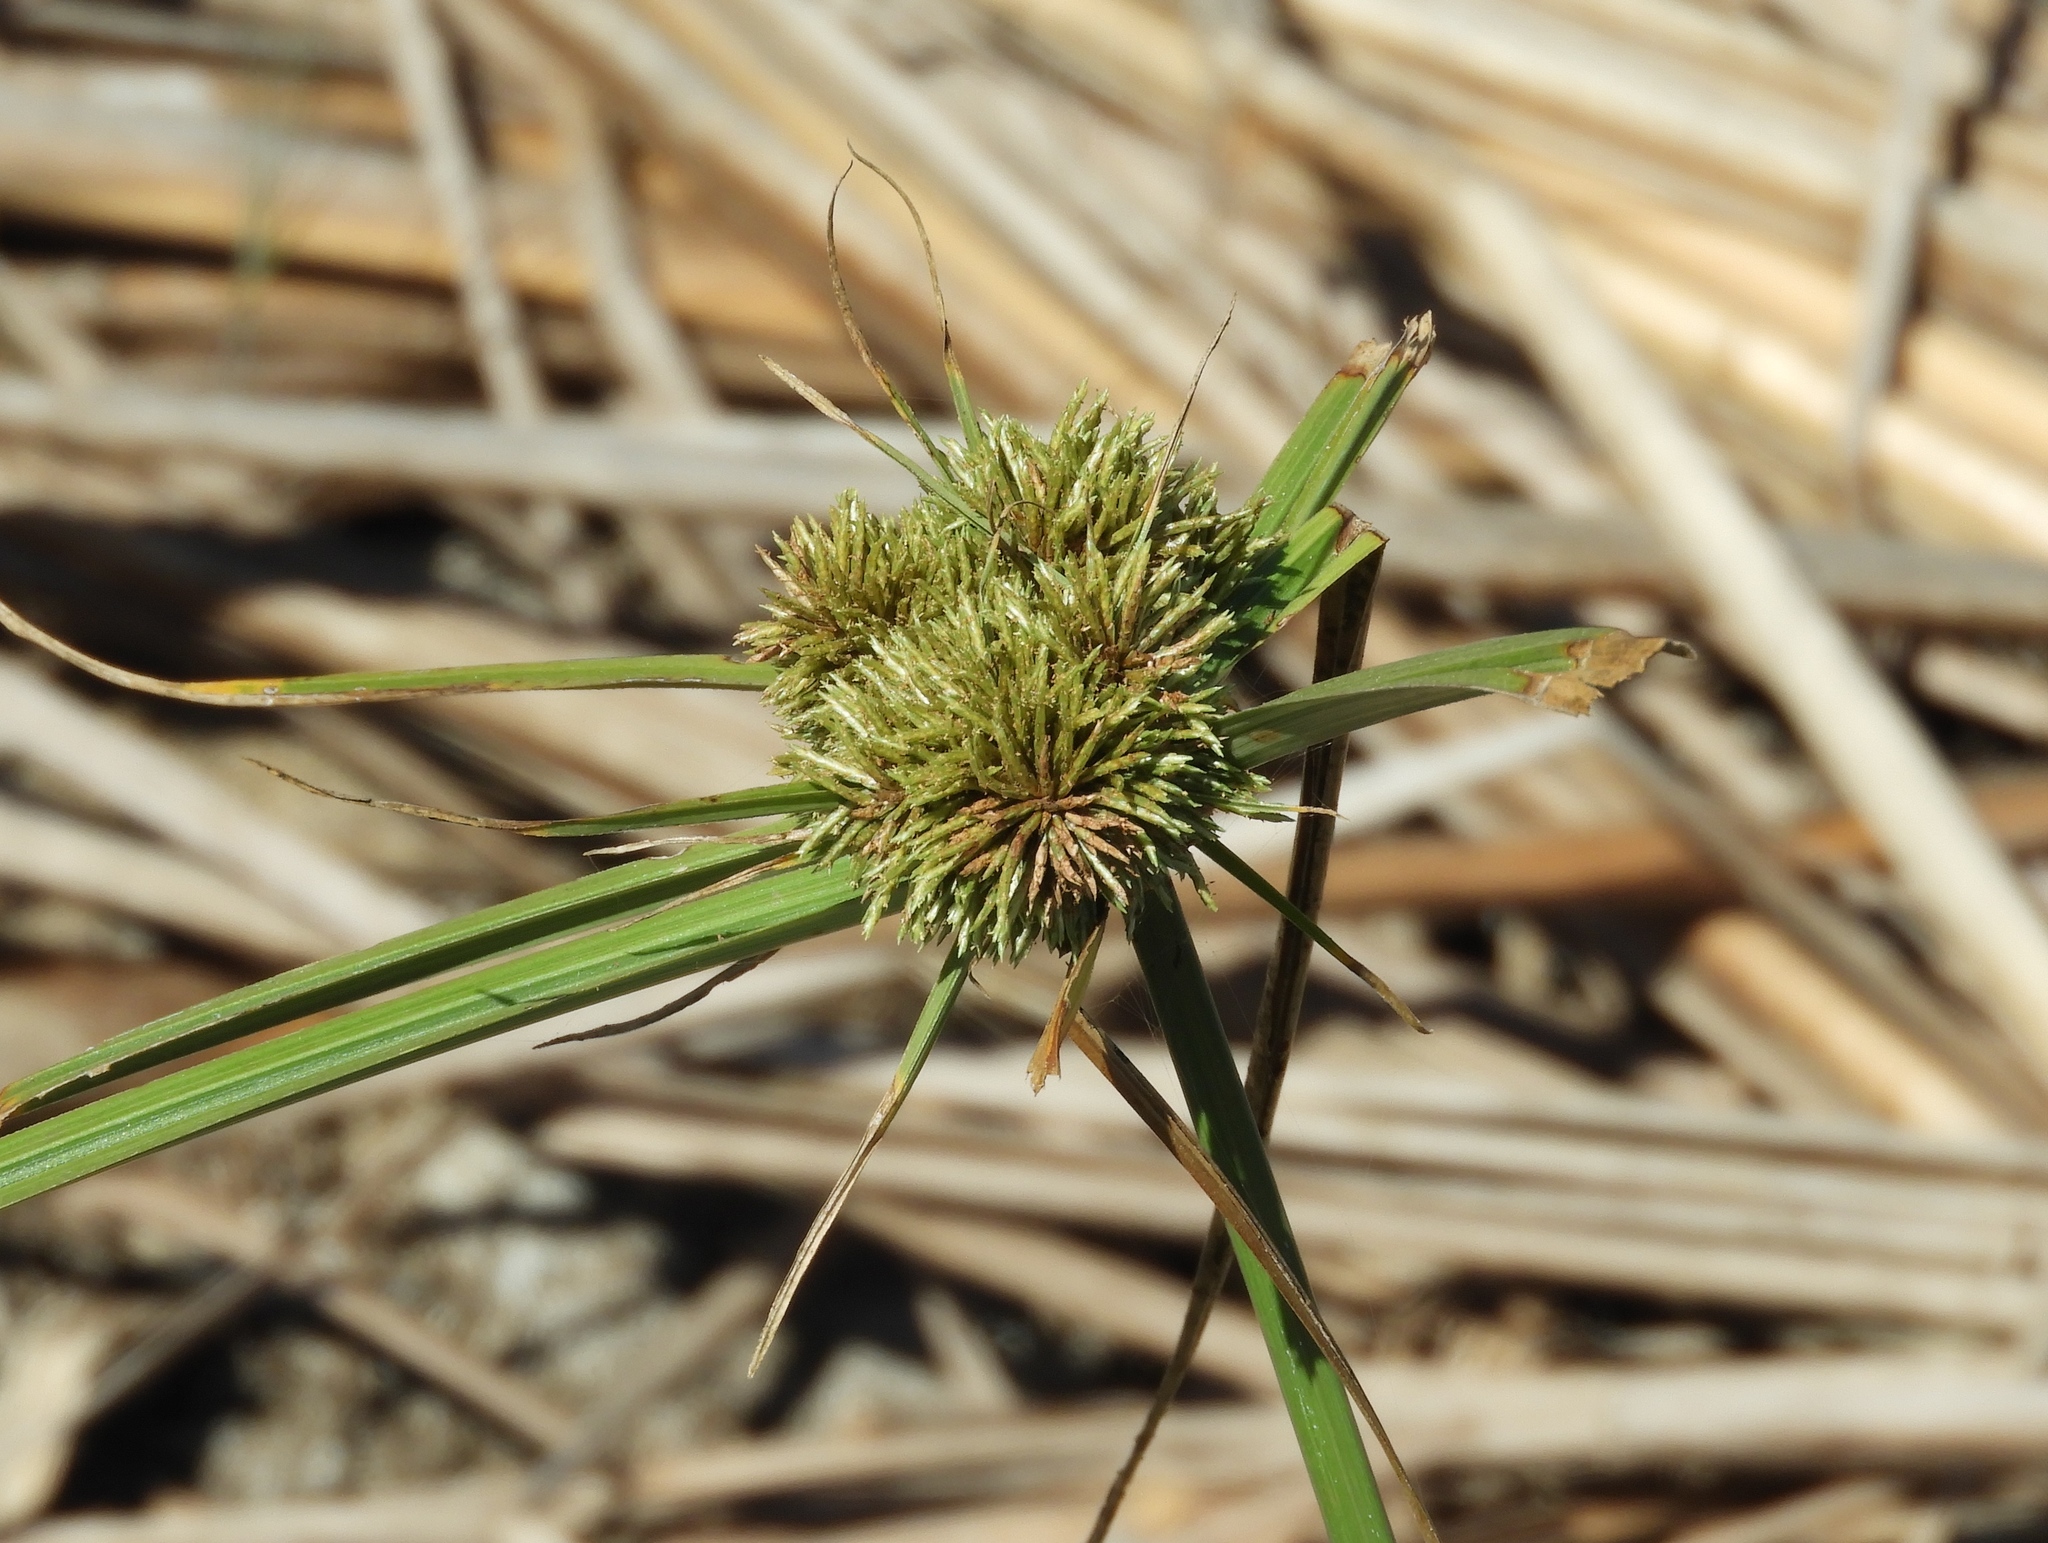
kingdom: Plantae
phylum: Tracheophyta
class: Liliopsida
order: Poales
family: Cyperaceae
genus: Cyperus
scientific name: Cyperus
